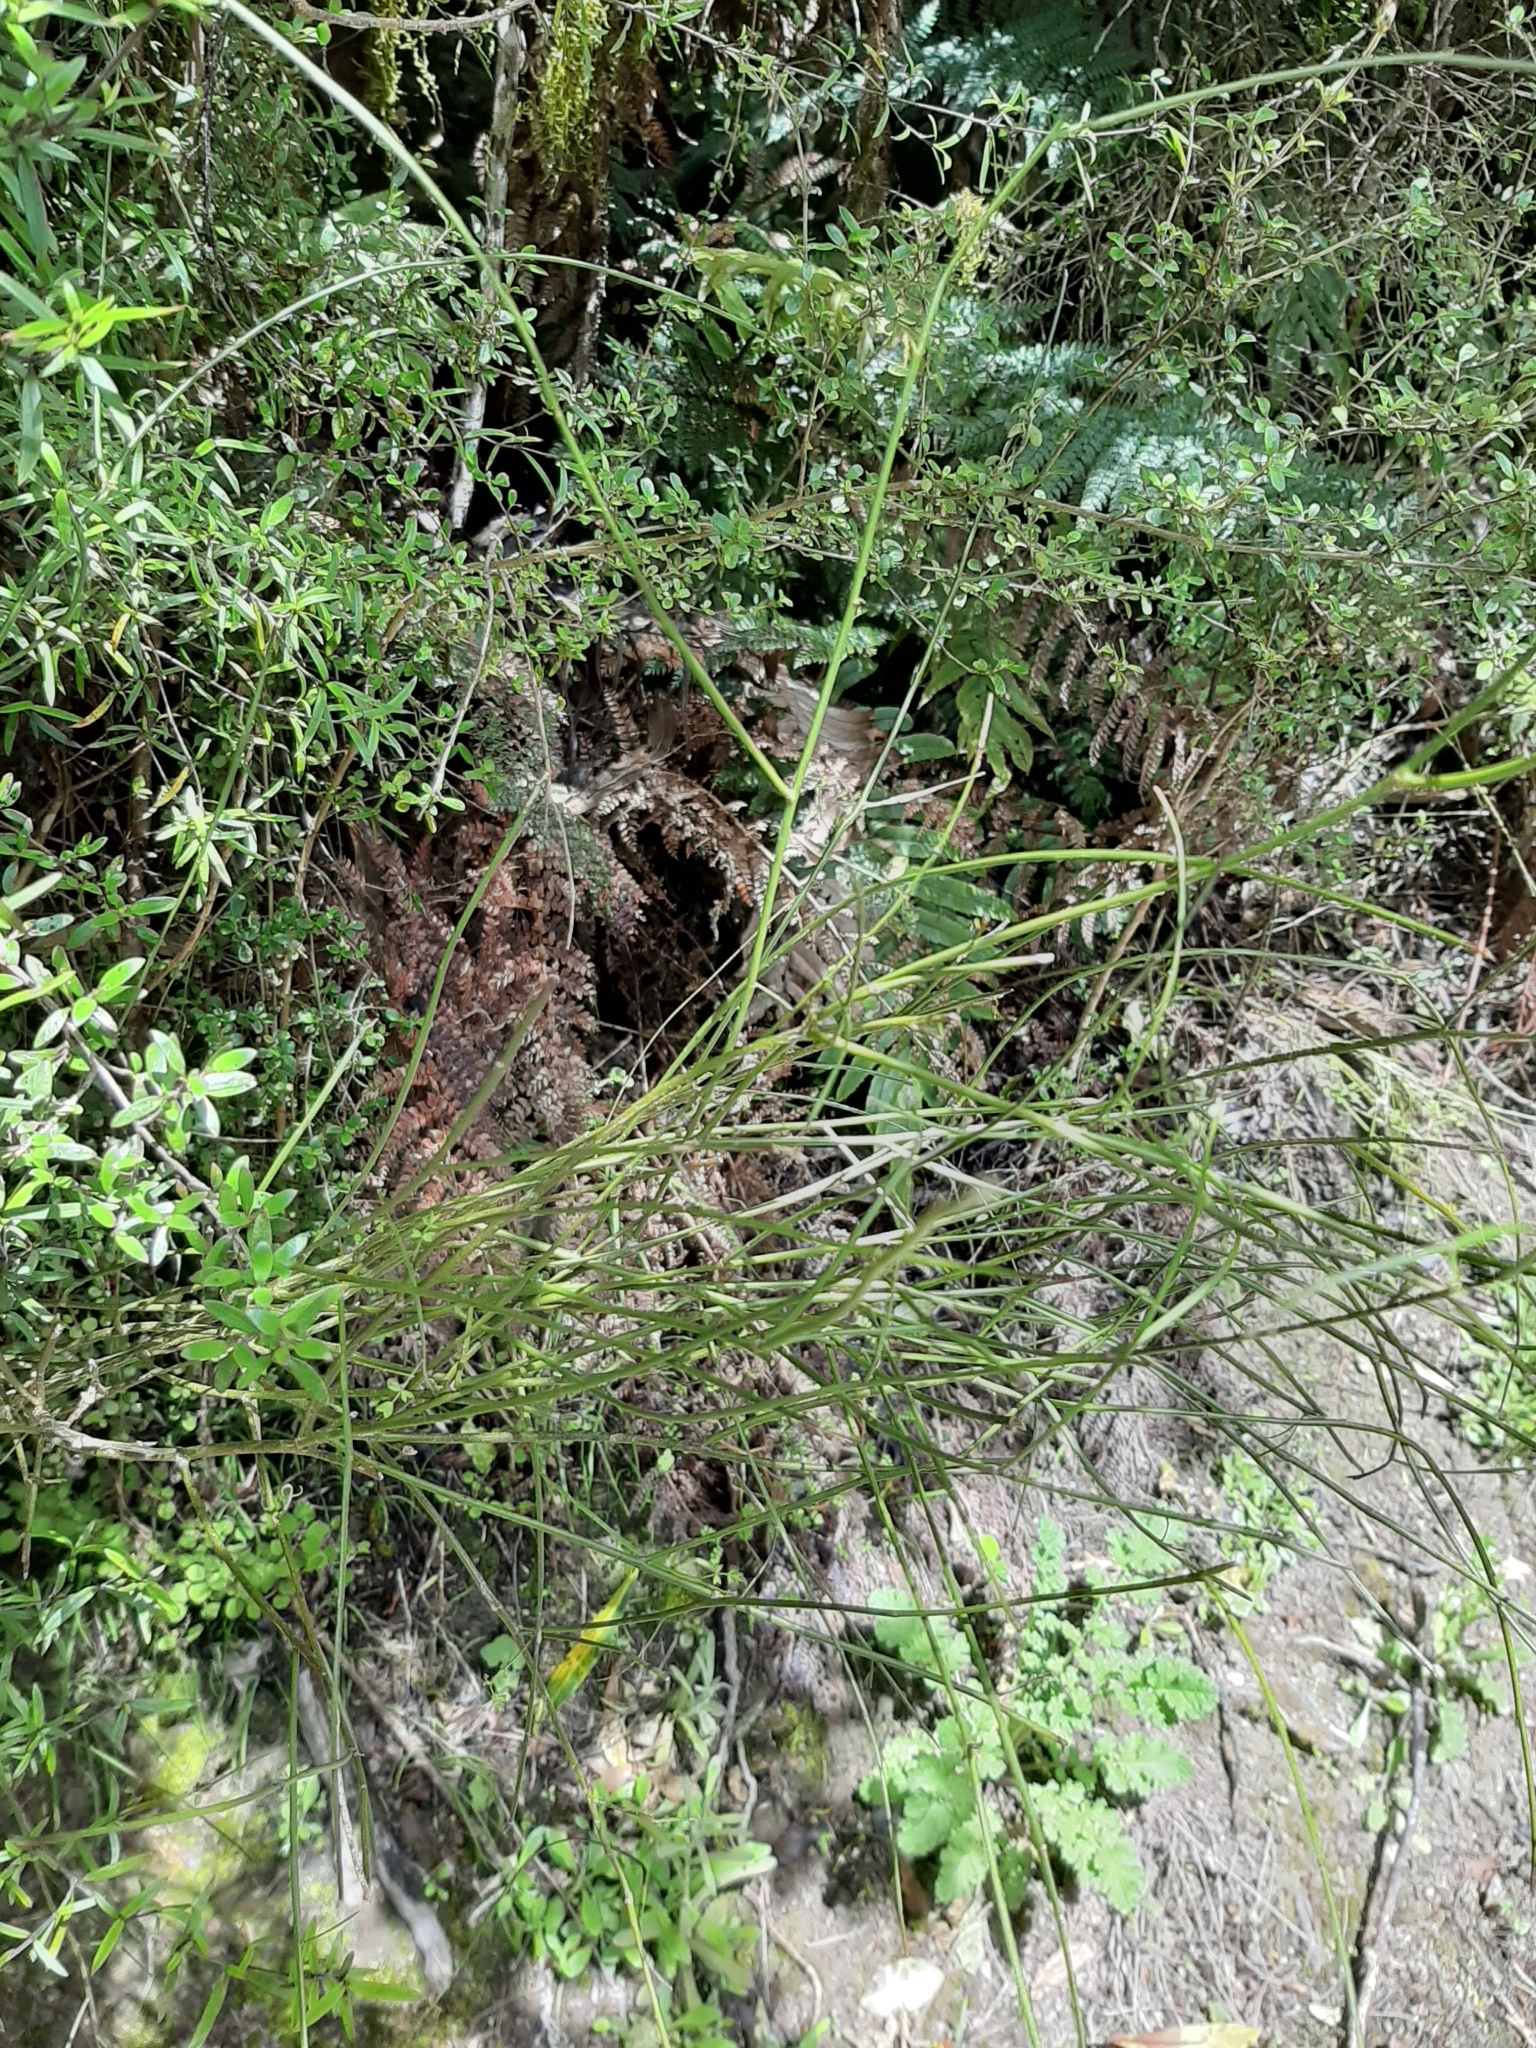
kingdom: Plantae
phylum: Tracheophyta
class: Magnoliopsida
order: Fabales
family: Fabaceae
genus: Carmichaelia
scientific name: Carmichaelia australis
